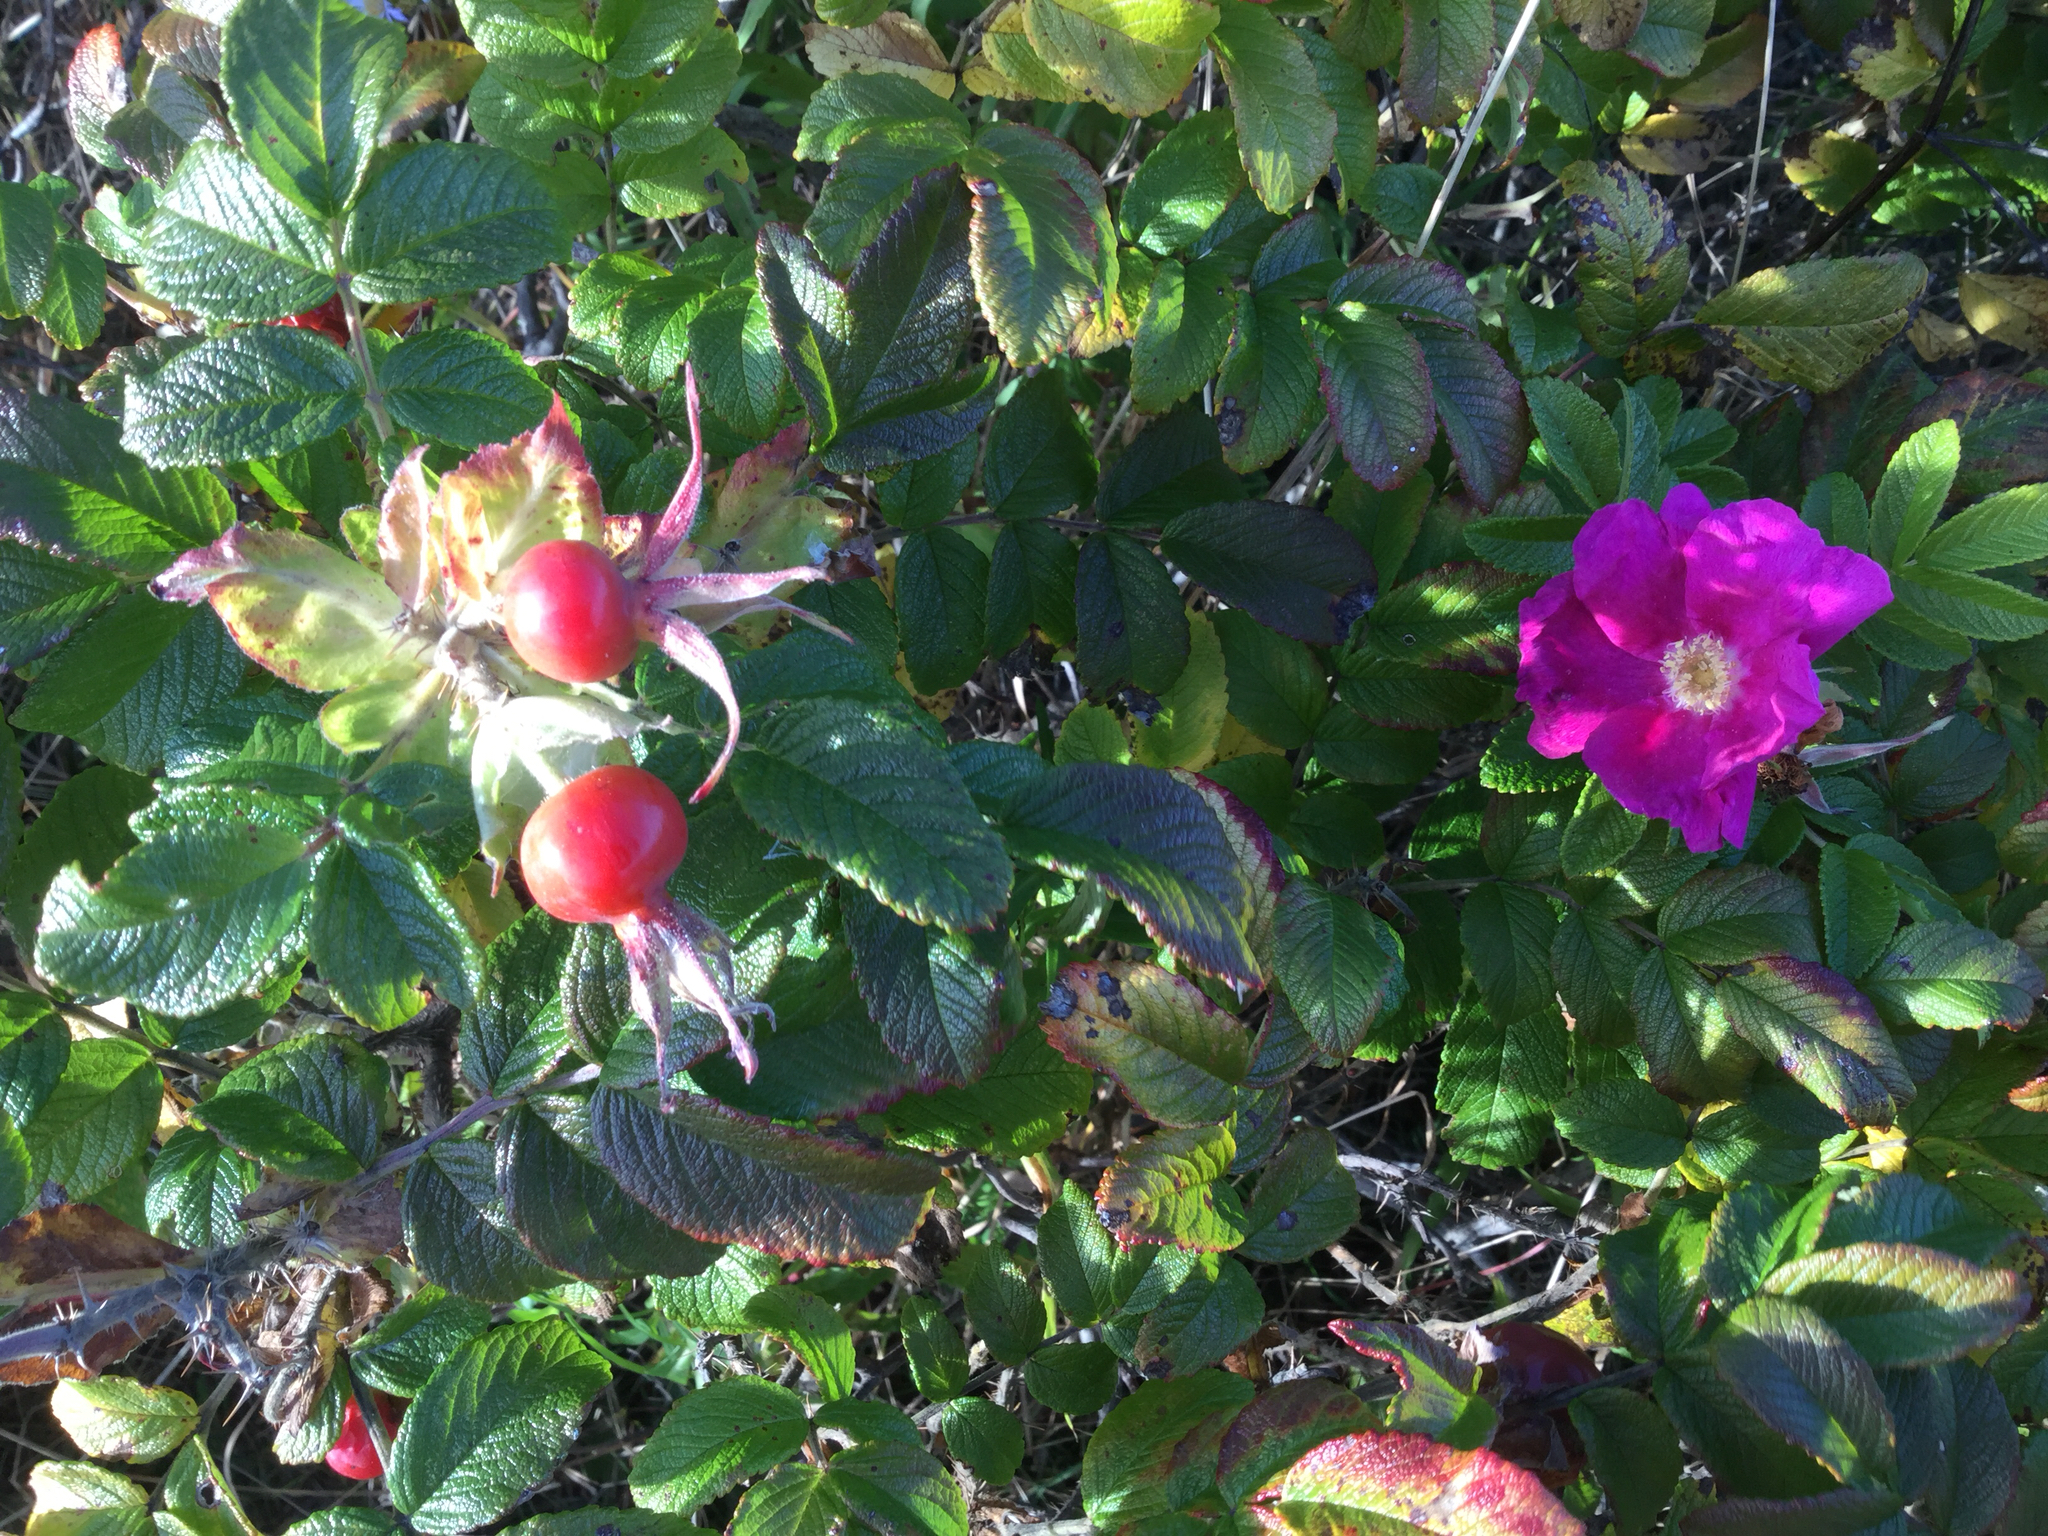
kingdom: Plantae
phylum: Tracheophyta
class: Magnoliopsida
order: Rosales
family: Rosaceae
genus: Rosa
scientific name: Rosa rugosa
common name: Japanese rose
